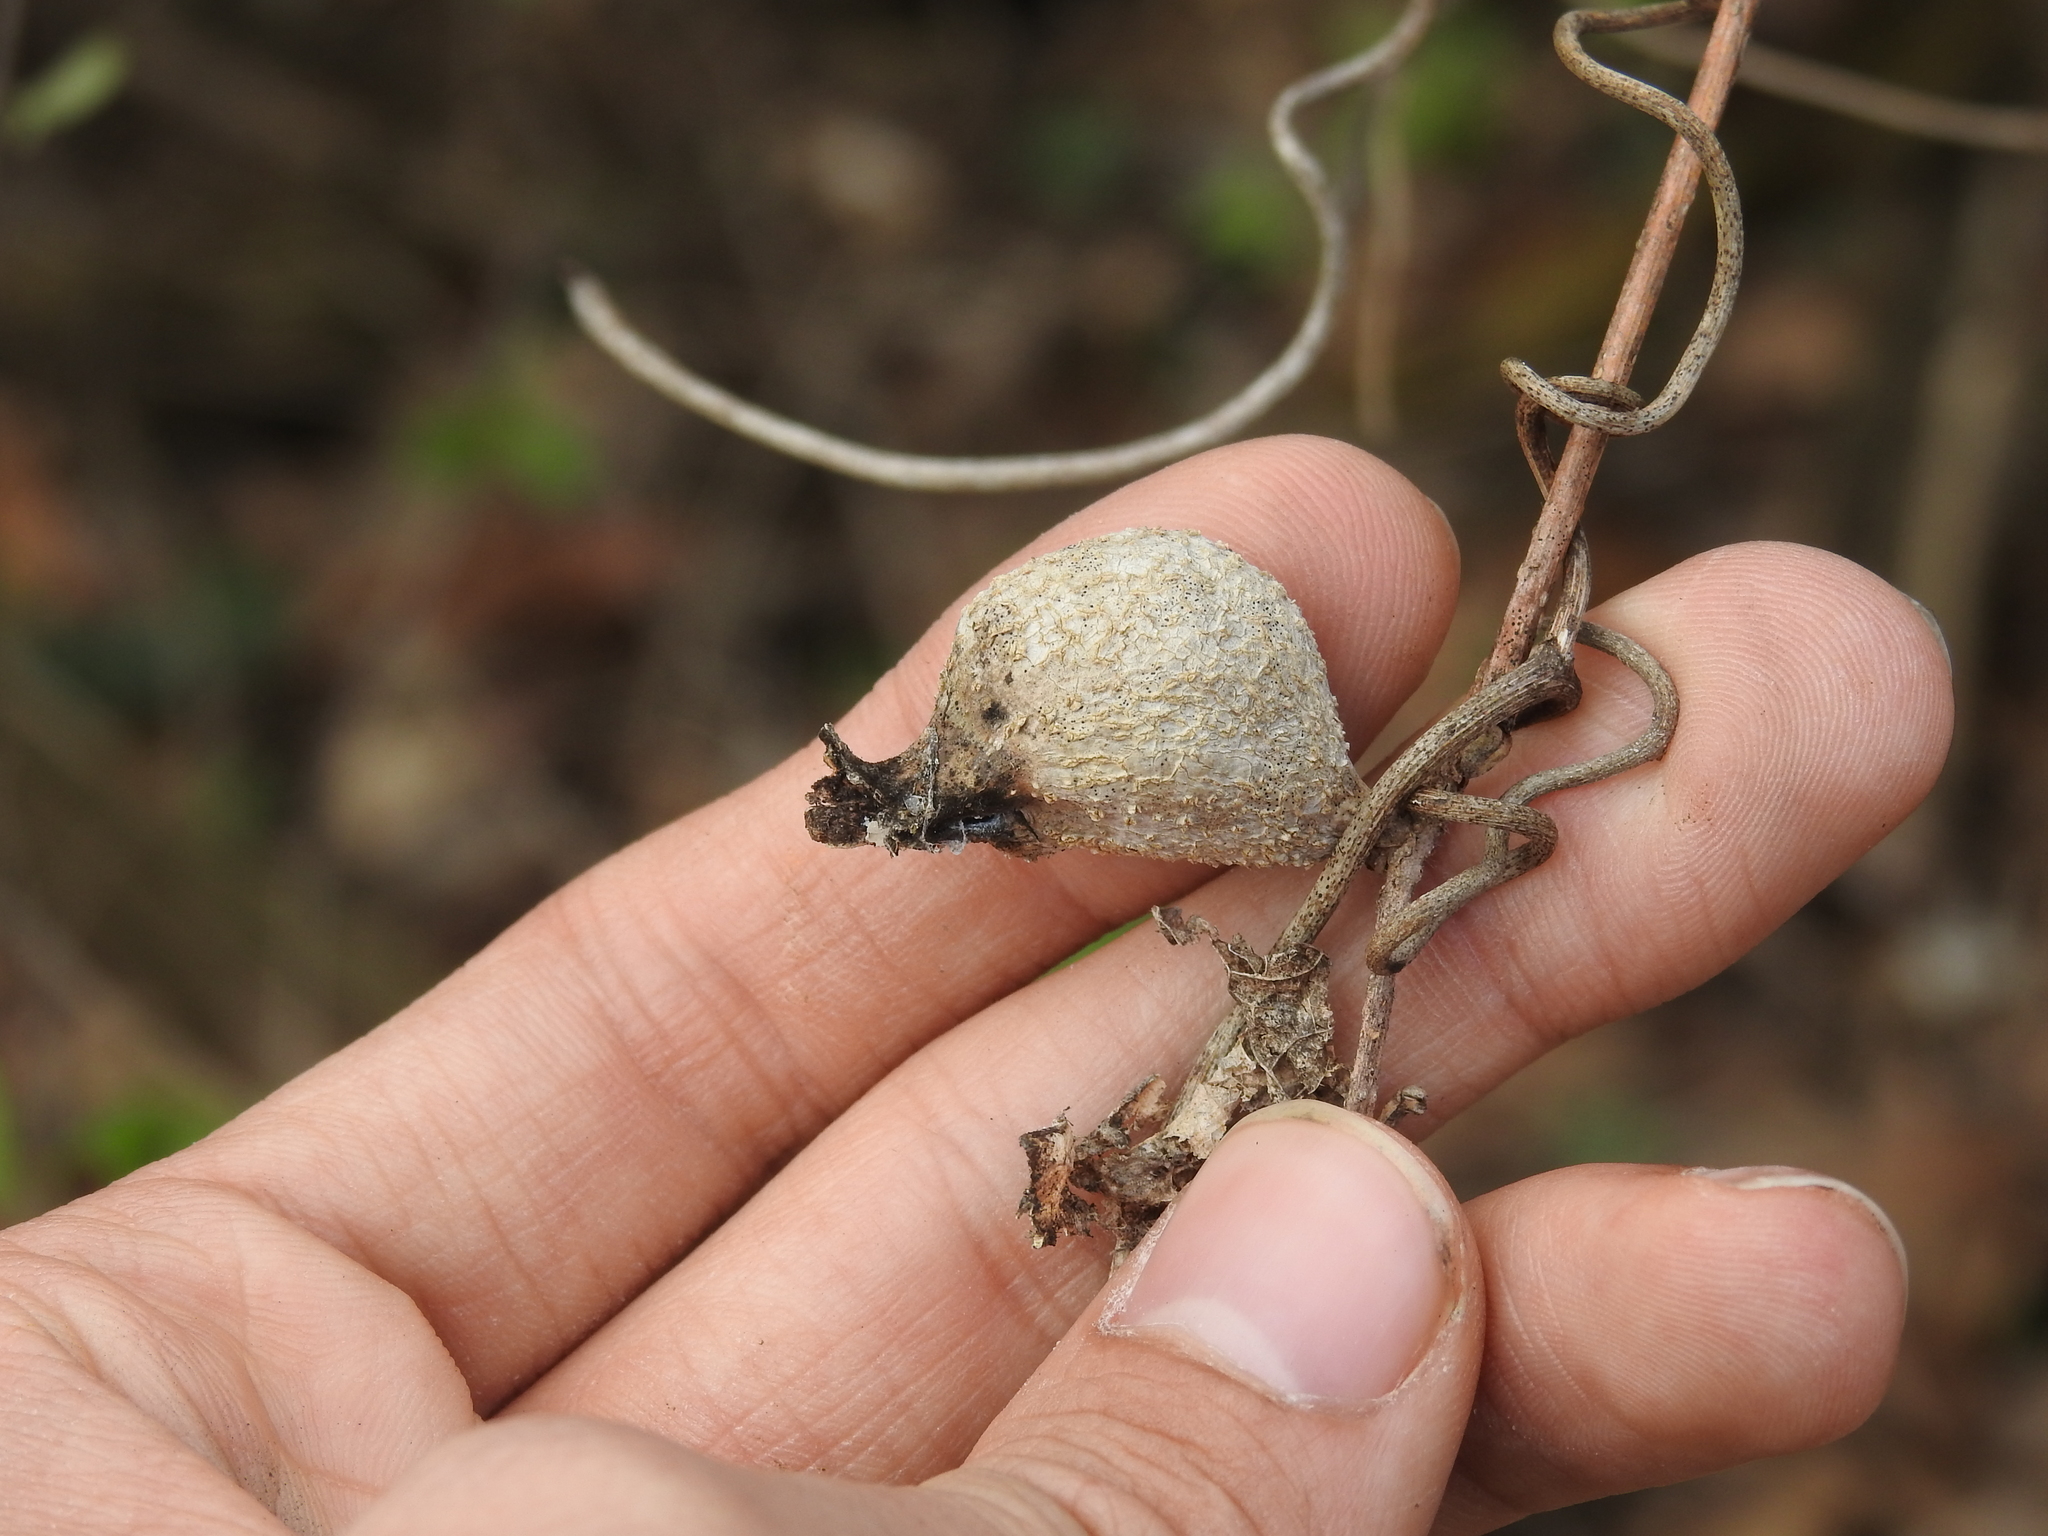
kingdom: Animalia
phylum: Arthropoda
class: Insecta
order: Hemiptera
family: Aphalaridae
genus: Pachypsylla
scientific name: Pachypsylla venusta
